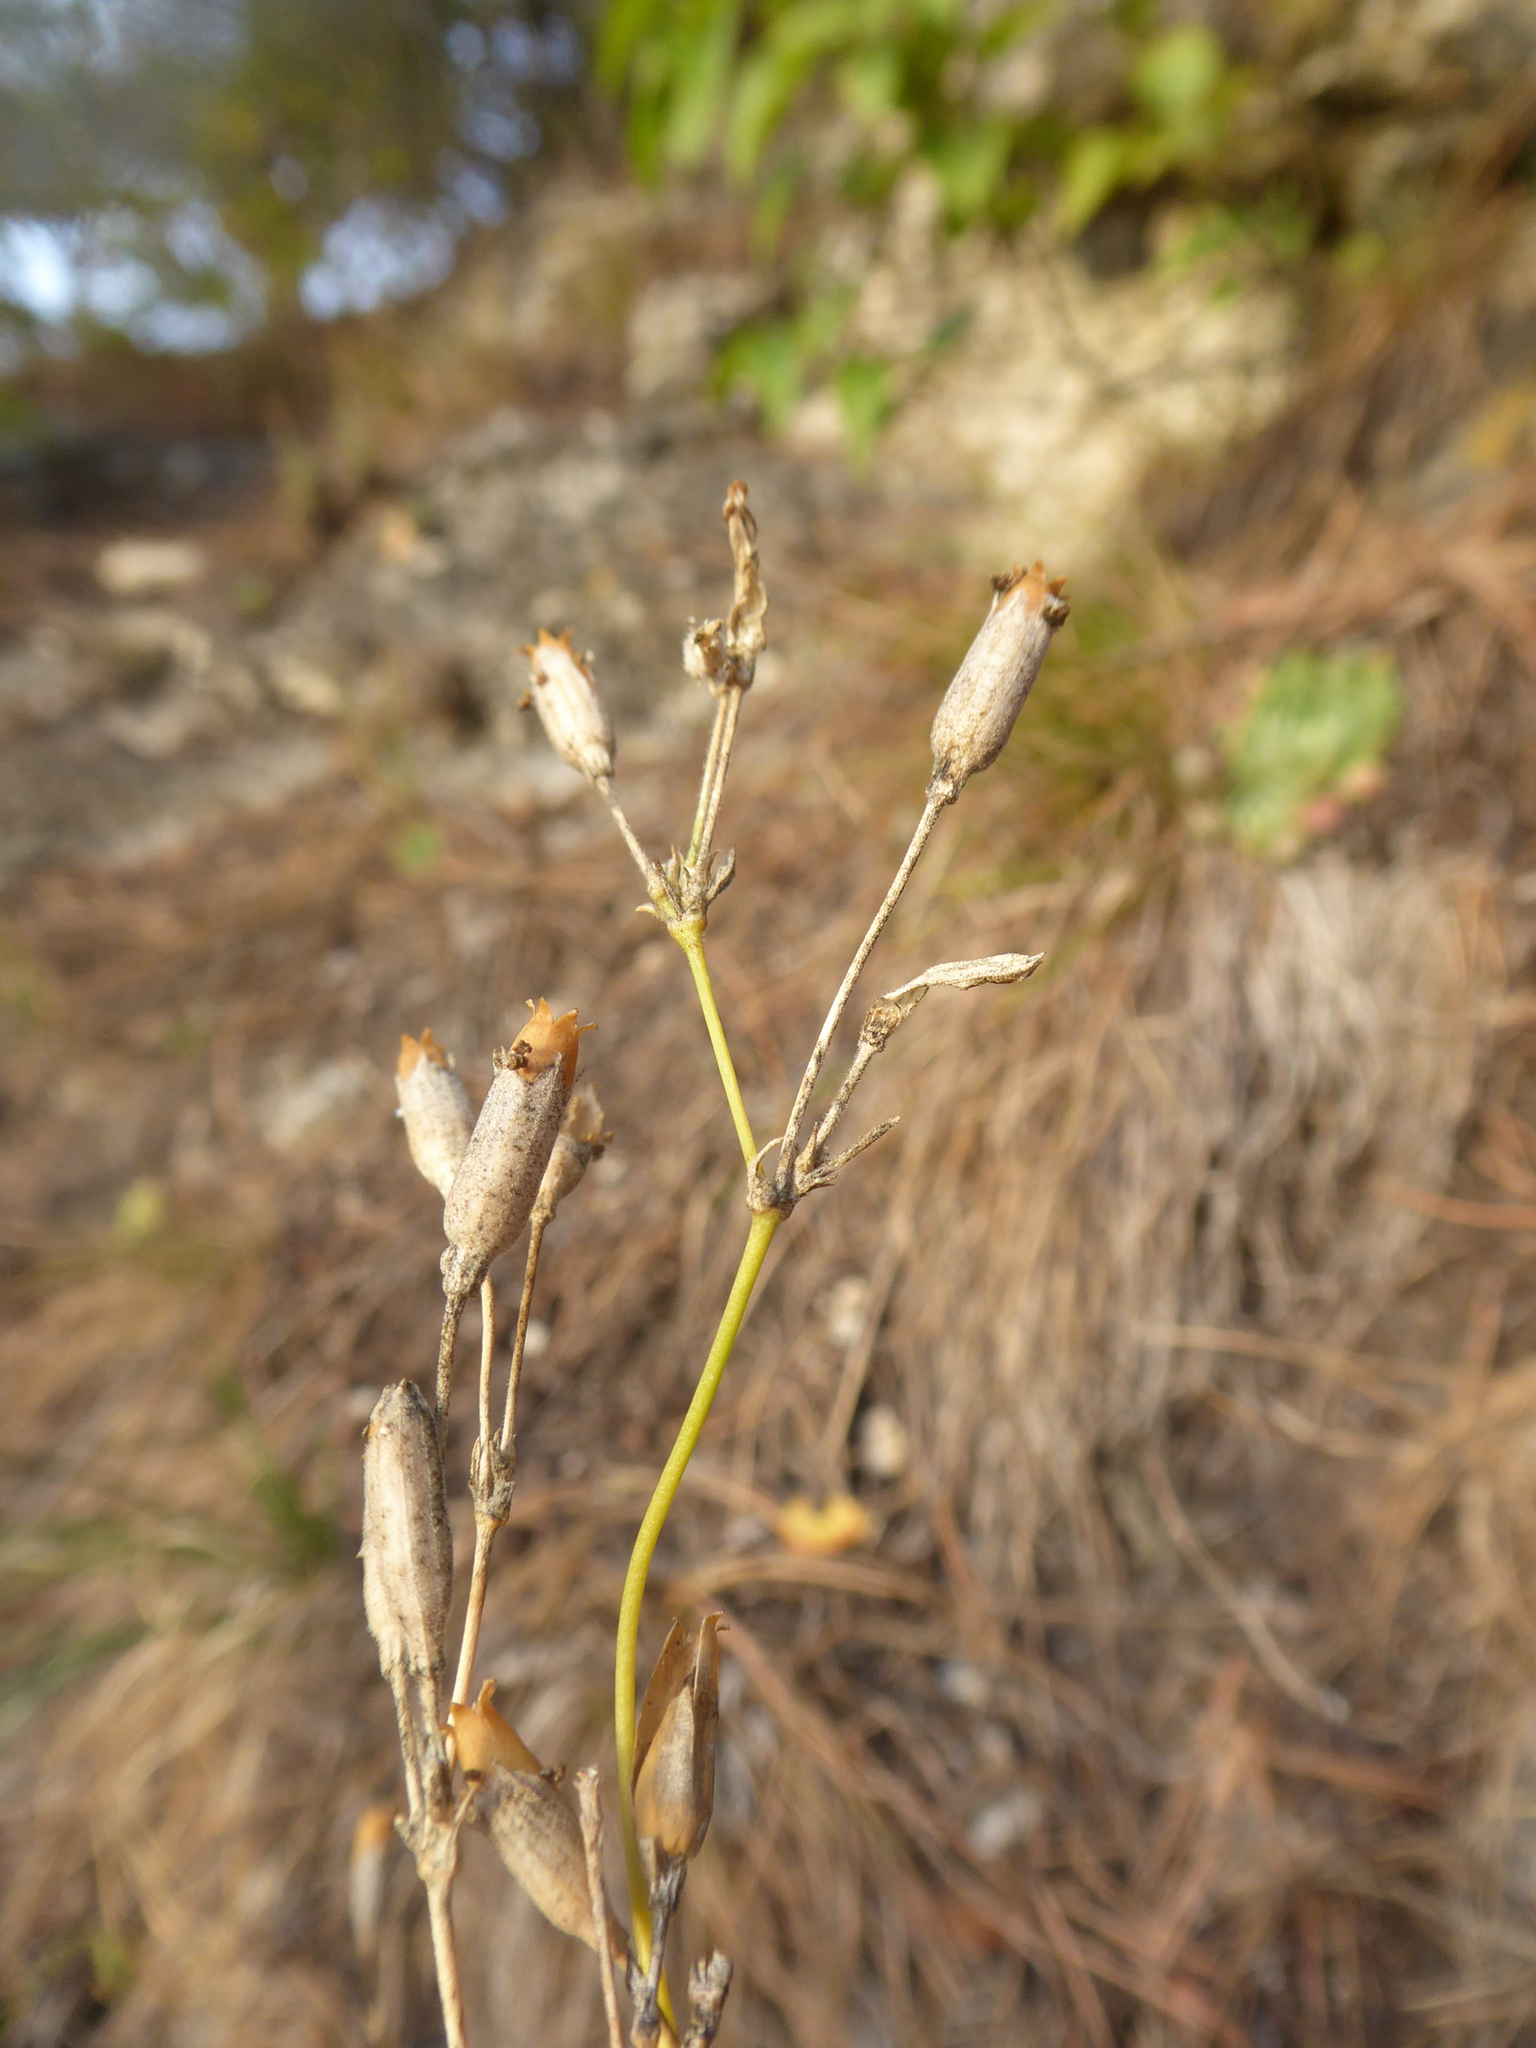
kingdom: Plantae
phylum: Tracheophyta
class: Magnoliopsida
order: Caryophyllales
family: Caryophyllaceae
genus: Silene
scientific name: Silene flavescens
